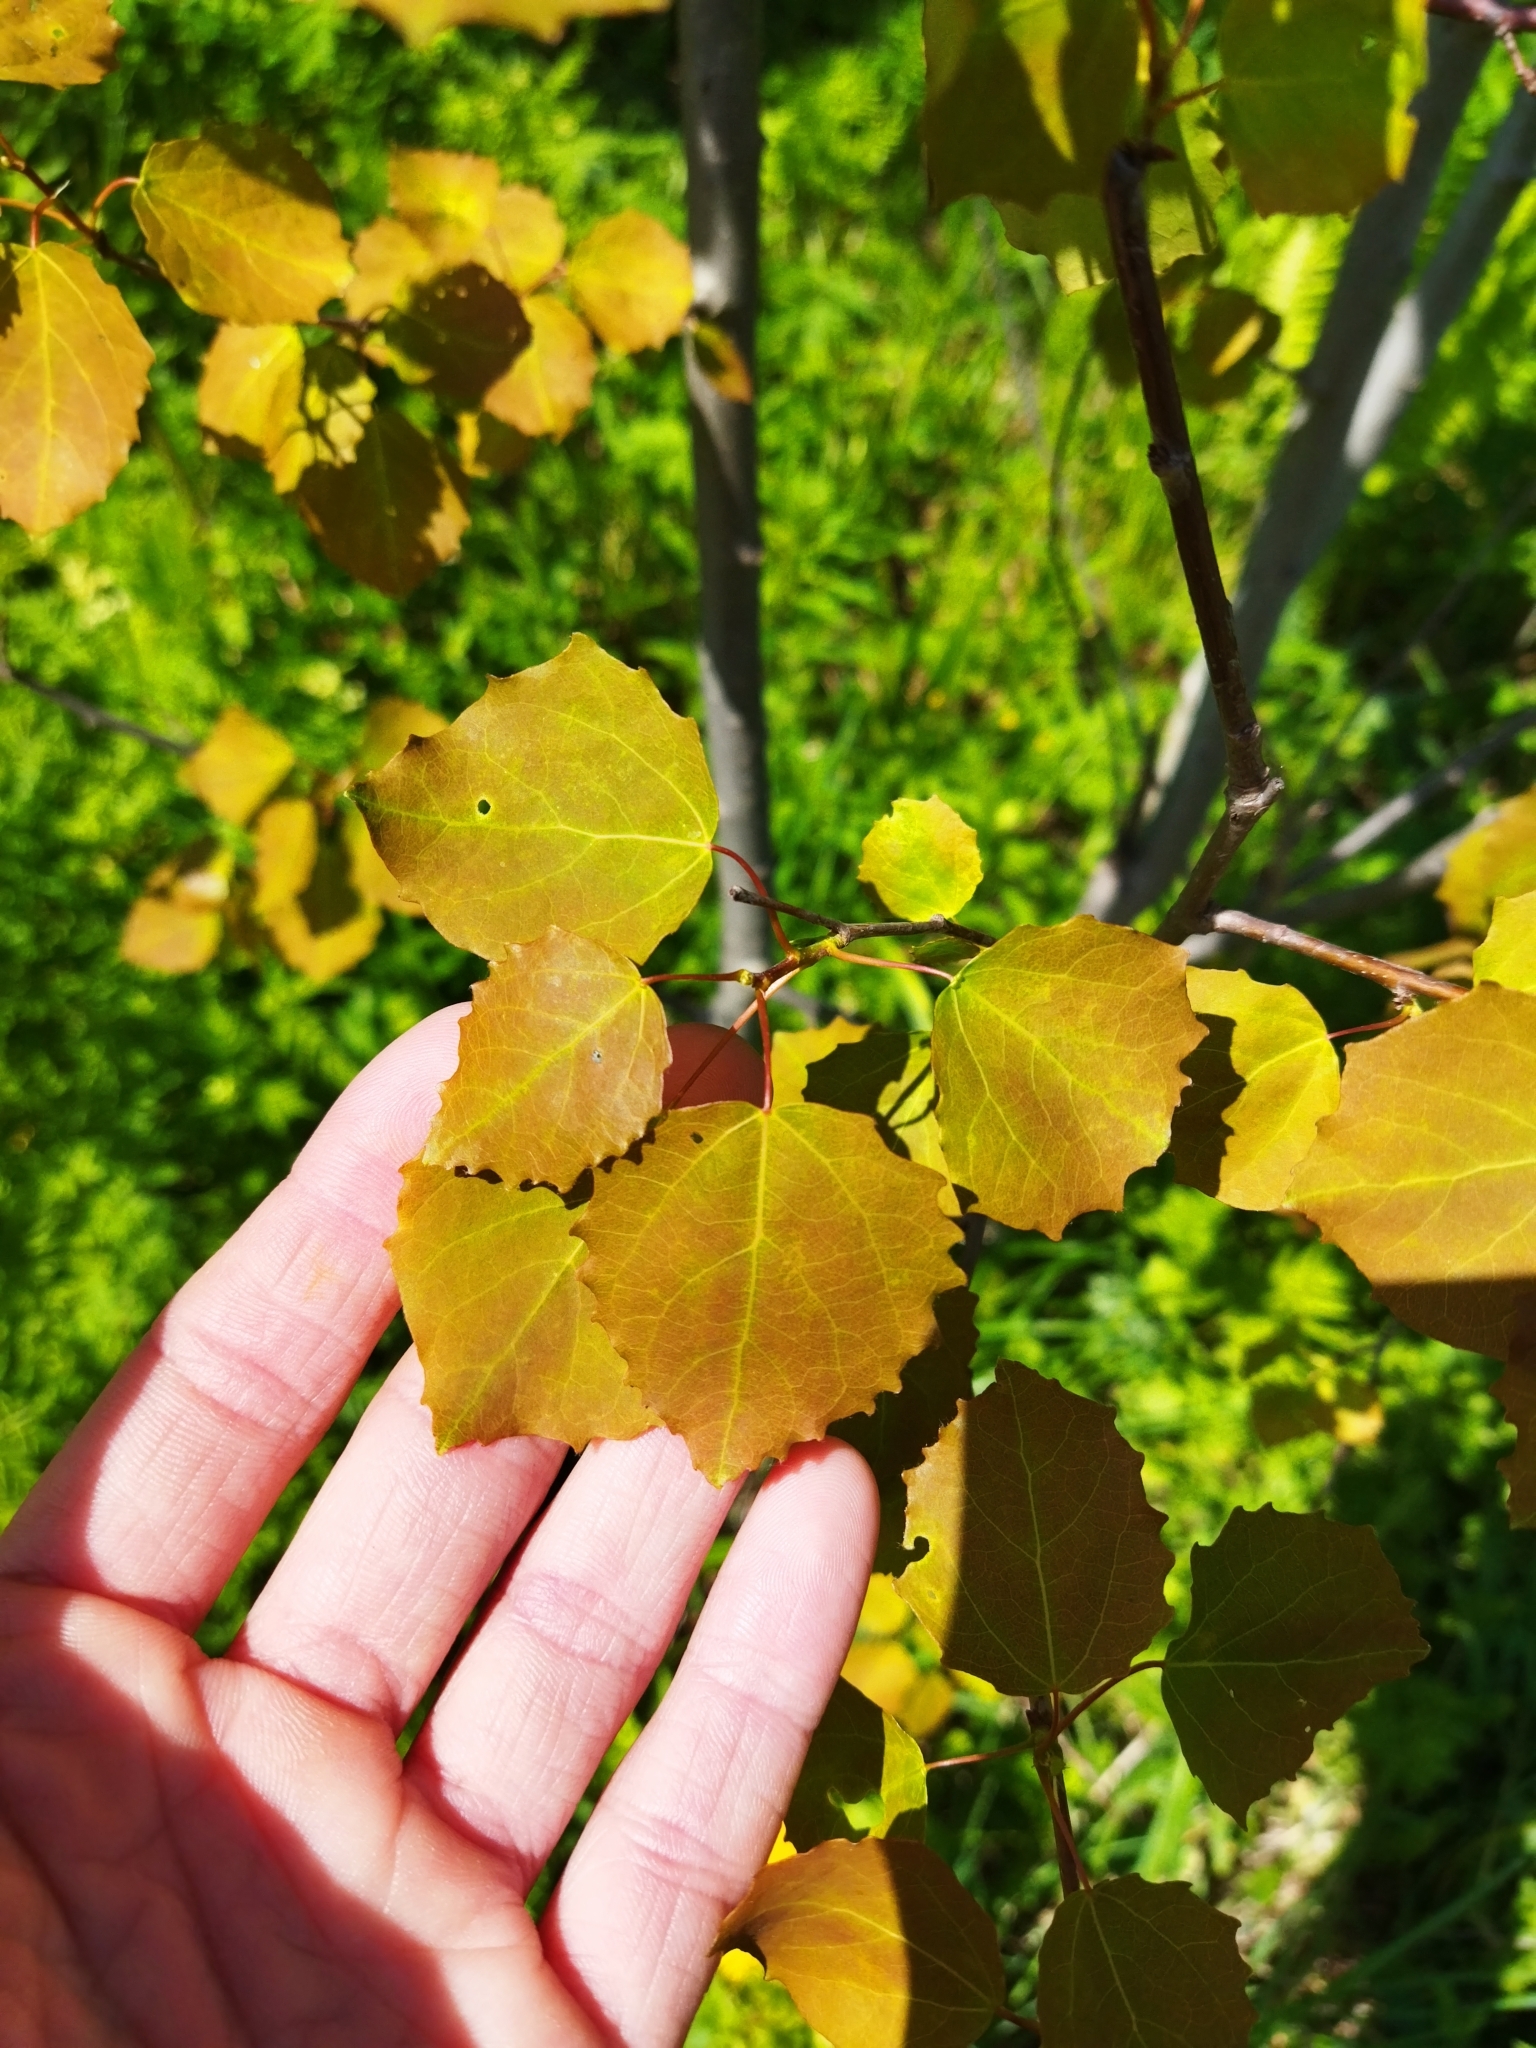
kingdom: Plantae
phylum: Tracheophyta
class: Magnoliopsida
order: Malpighiales
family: Salicaceae
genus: Populus
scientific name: Populus tremula
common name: European aspen
